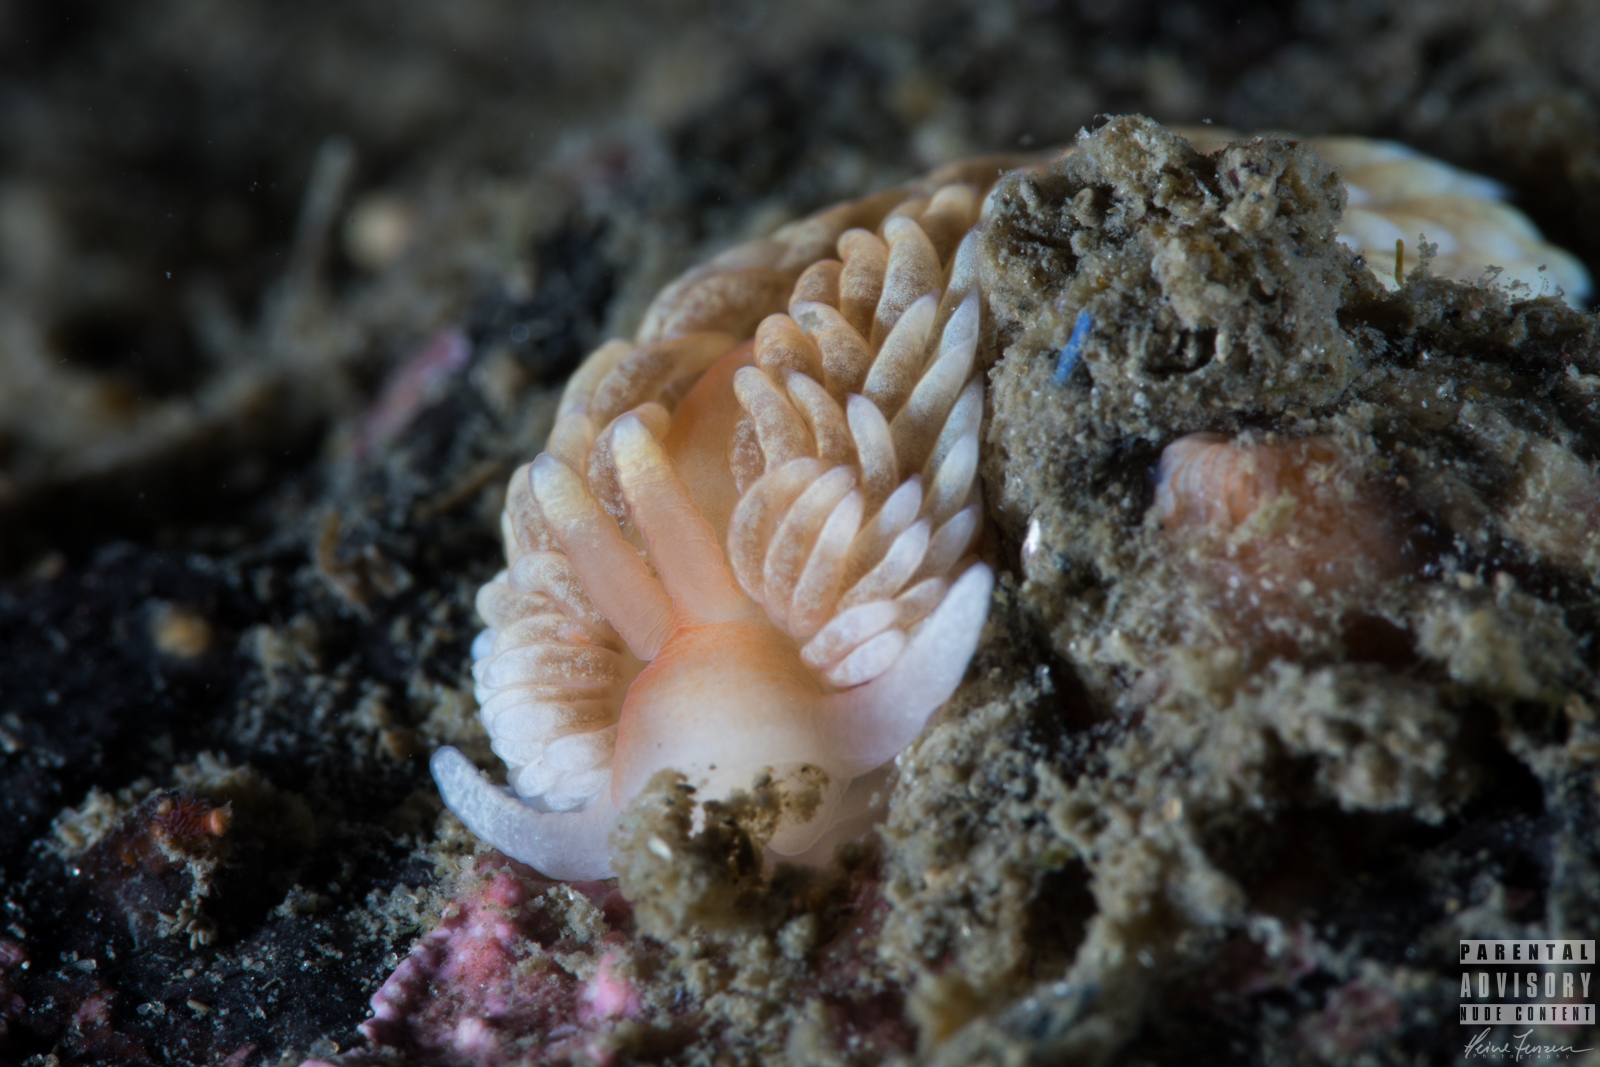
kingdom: Animalia
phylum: Mollusca
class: Gastropoda
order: Nudibranchia
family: Aeolidiidae
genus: Aeolidiella
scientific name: Aeolidiella glauca
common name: Orange-brown aeolid
